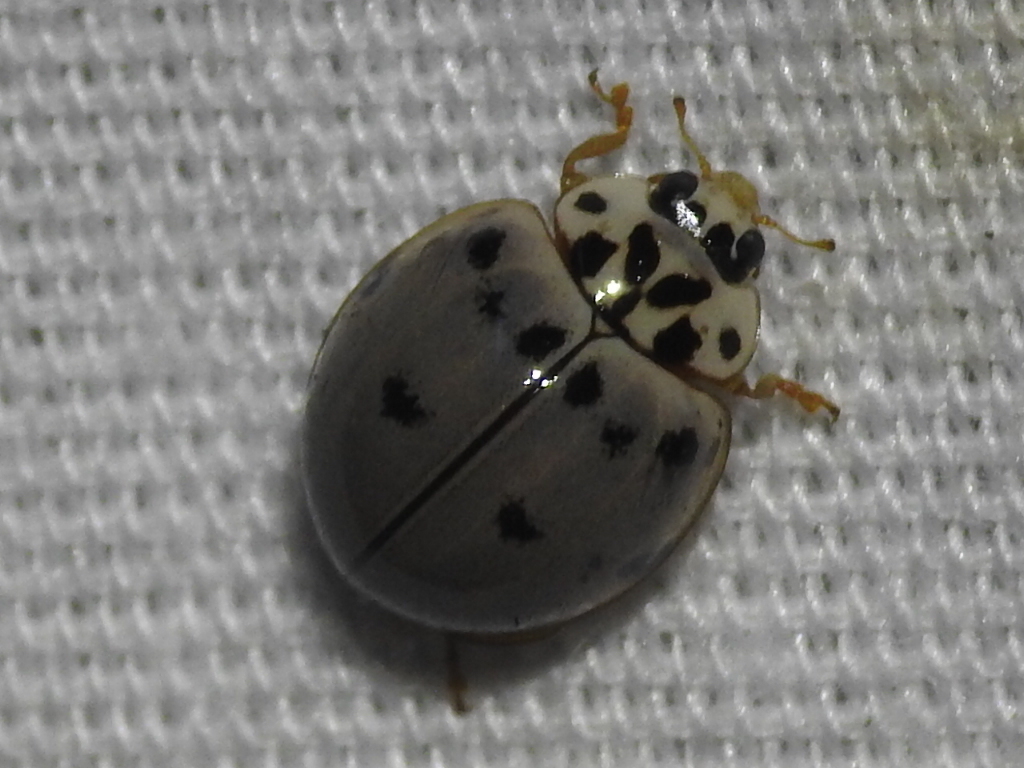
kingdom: Animalia
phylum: Arthropoda
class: Insecta
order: Coleoptera
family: Coccinellidae
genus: Olla
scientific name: Olla v-nigrum
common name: Ashy gray lady beetle
